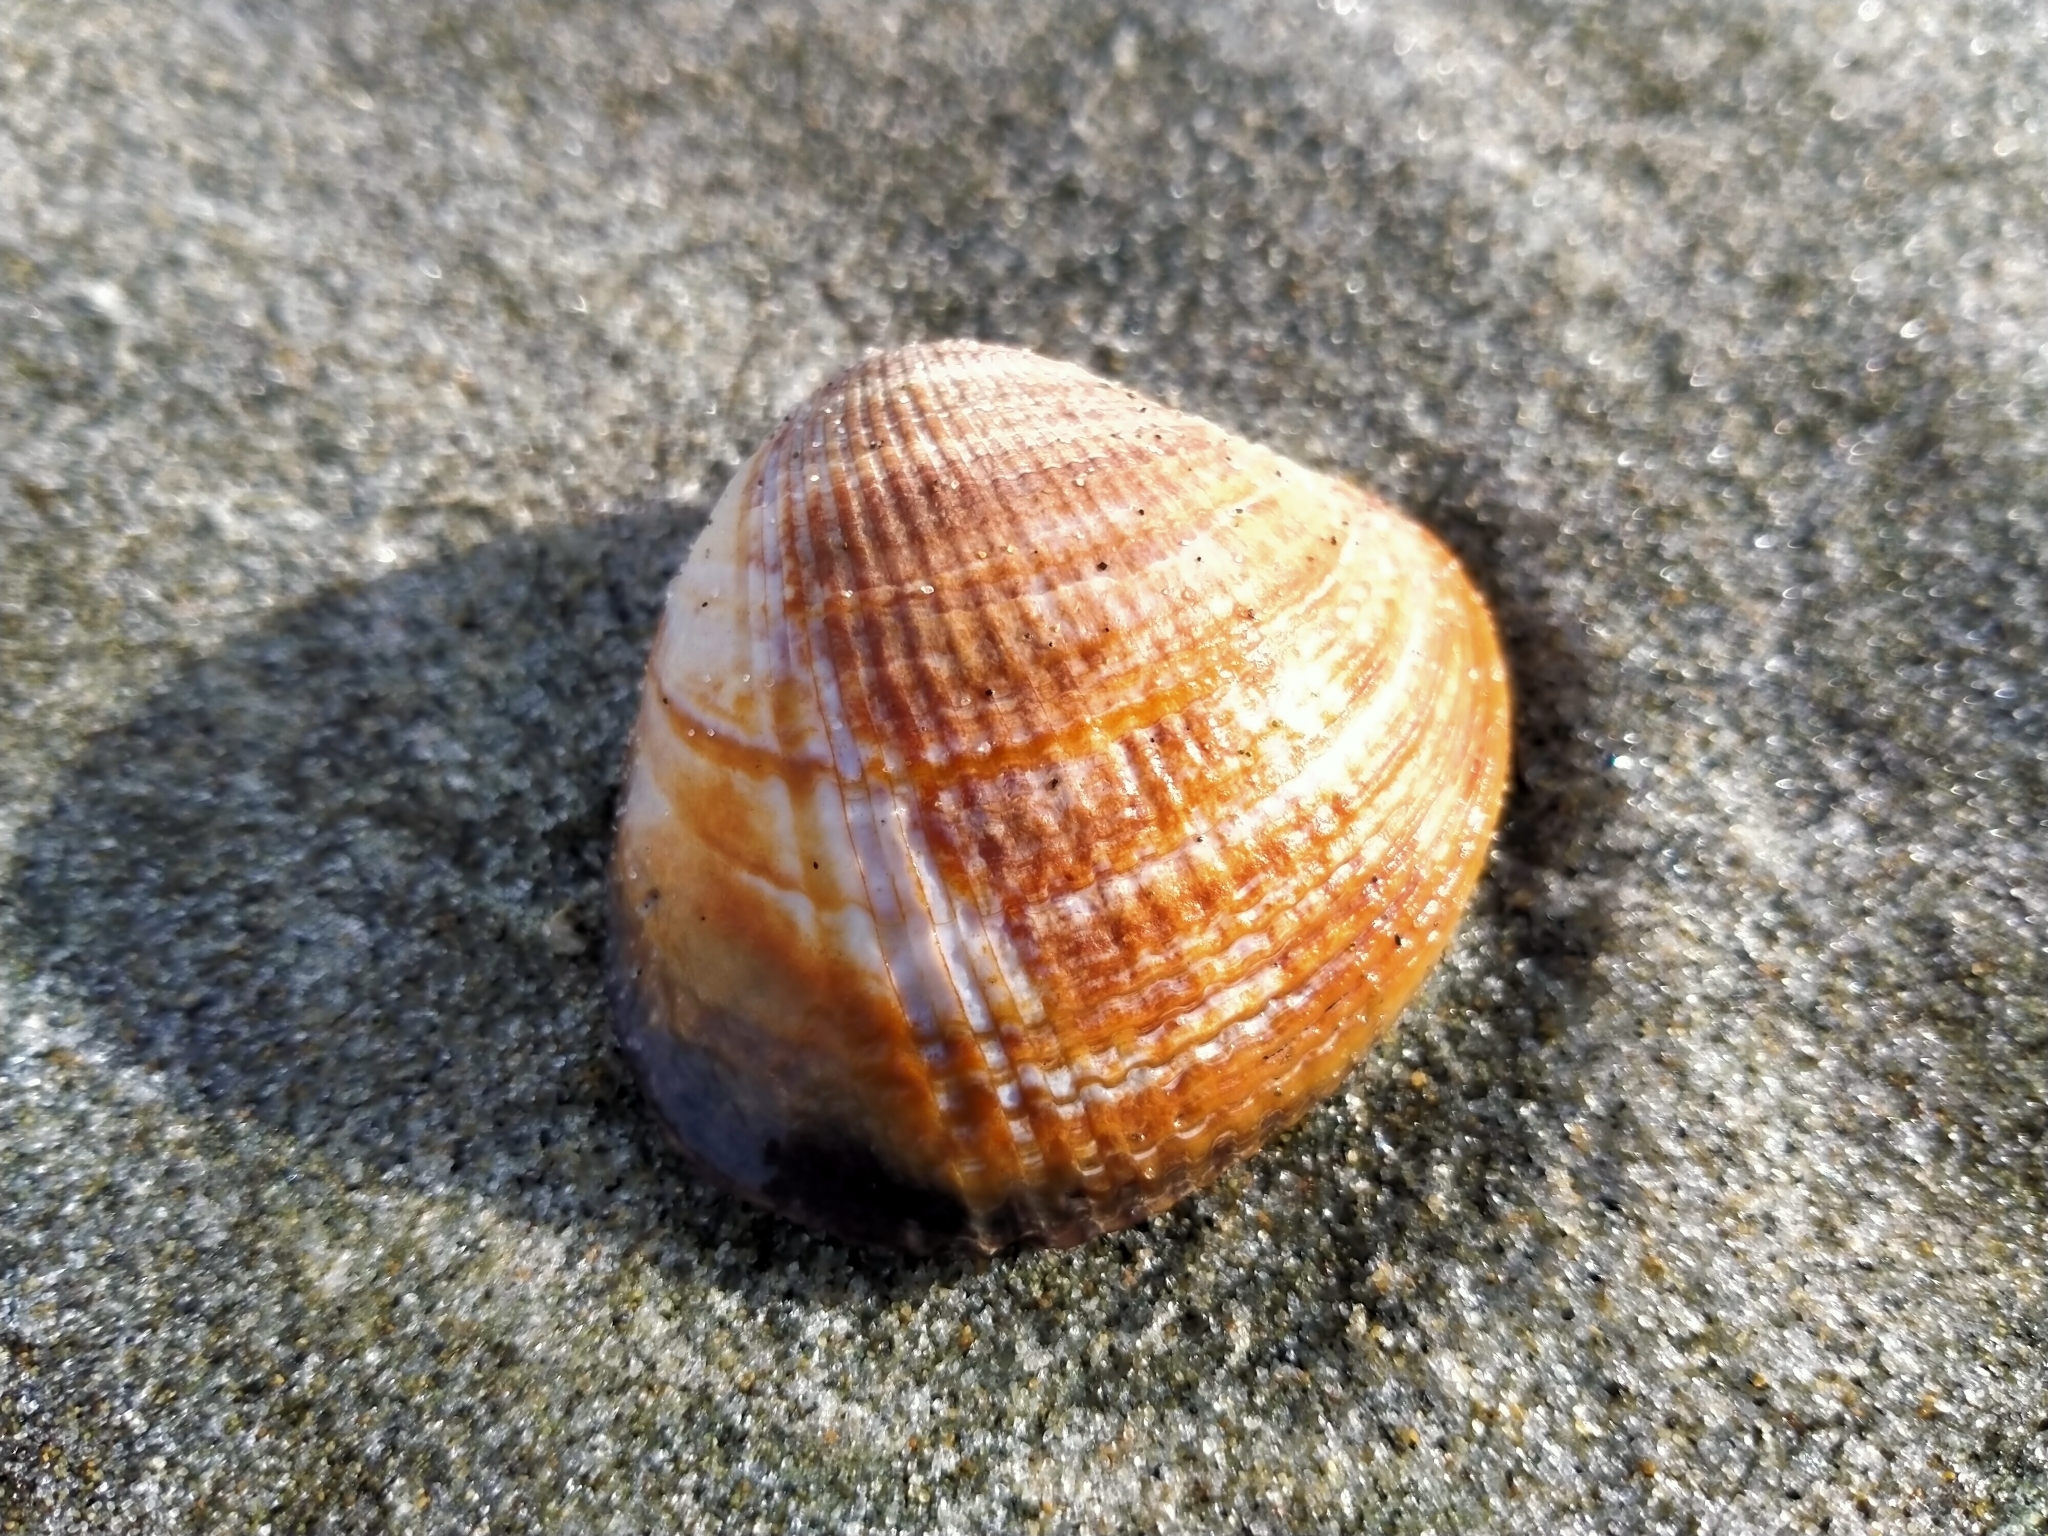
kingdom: Animalia
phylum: Mollusca
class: Bivalvia
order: Venerida
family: Veneridae
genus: Austrovenus
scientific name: Austrovenus stutchburyi
